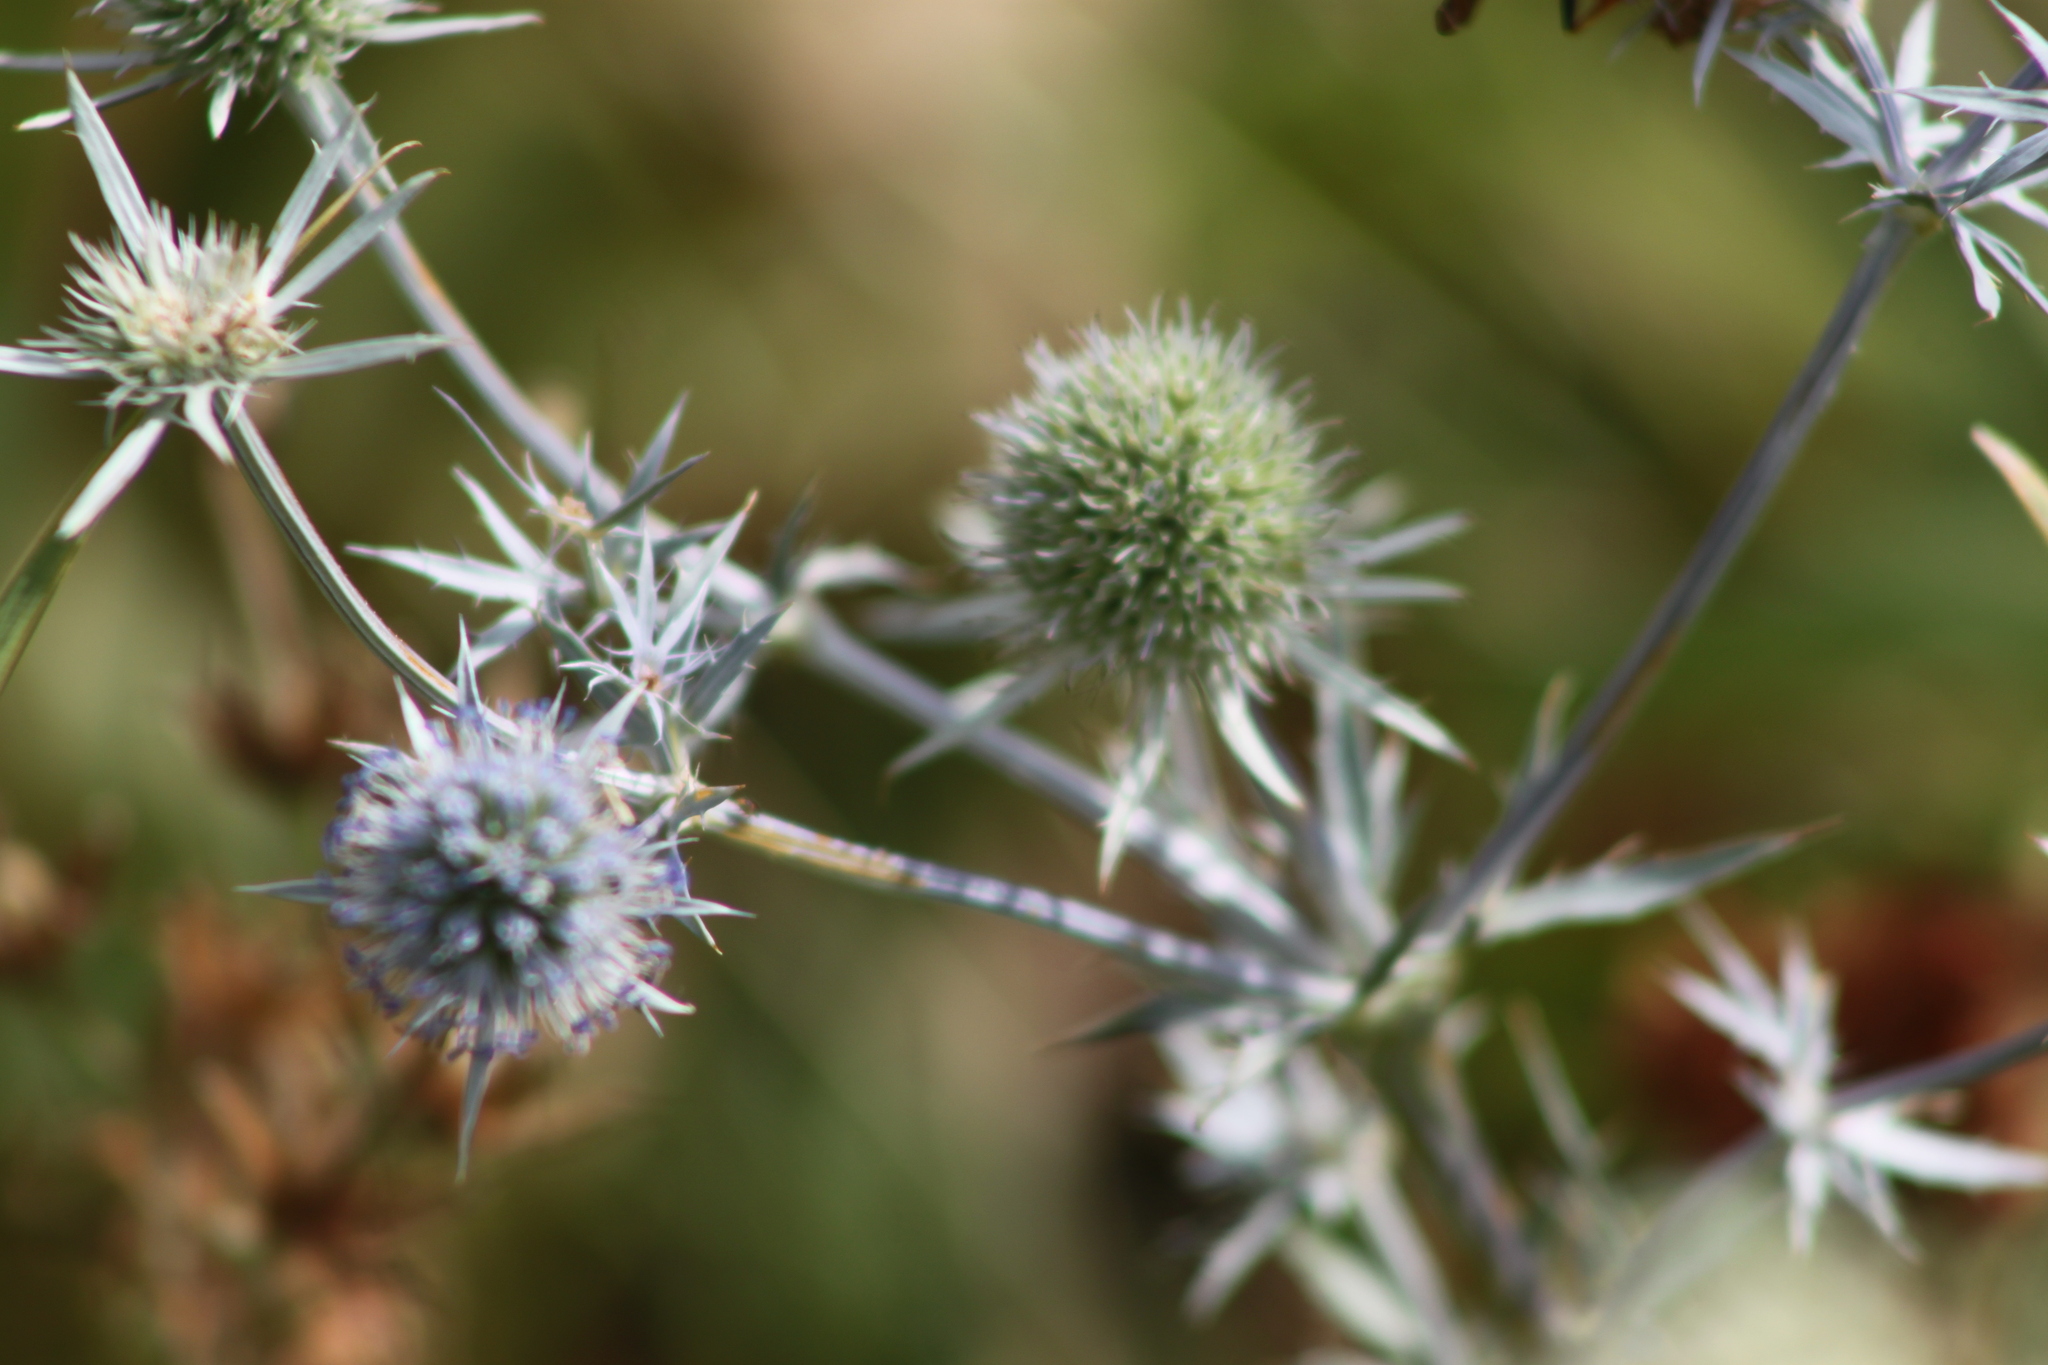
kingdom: Plantae
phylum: Tracheophyta
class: Magnoliopsida
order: Apiales
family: Apiaceae
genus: Eryngium
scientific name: Eryngium planum
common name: Blue eryngo
